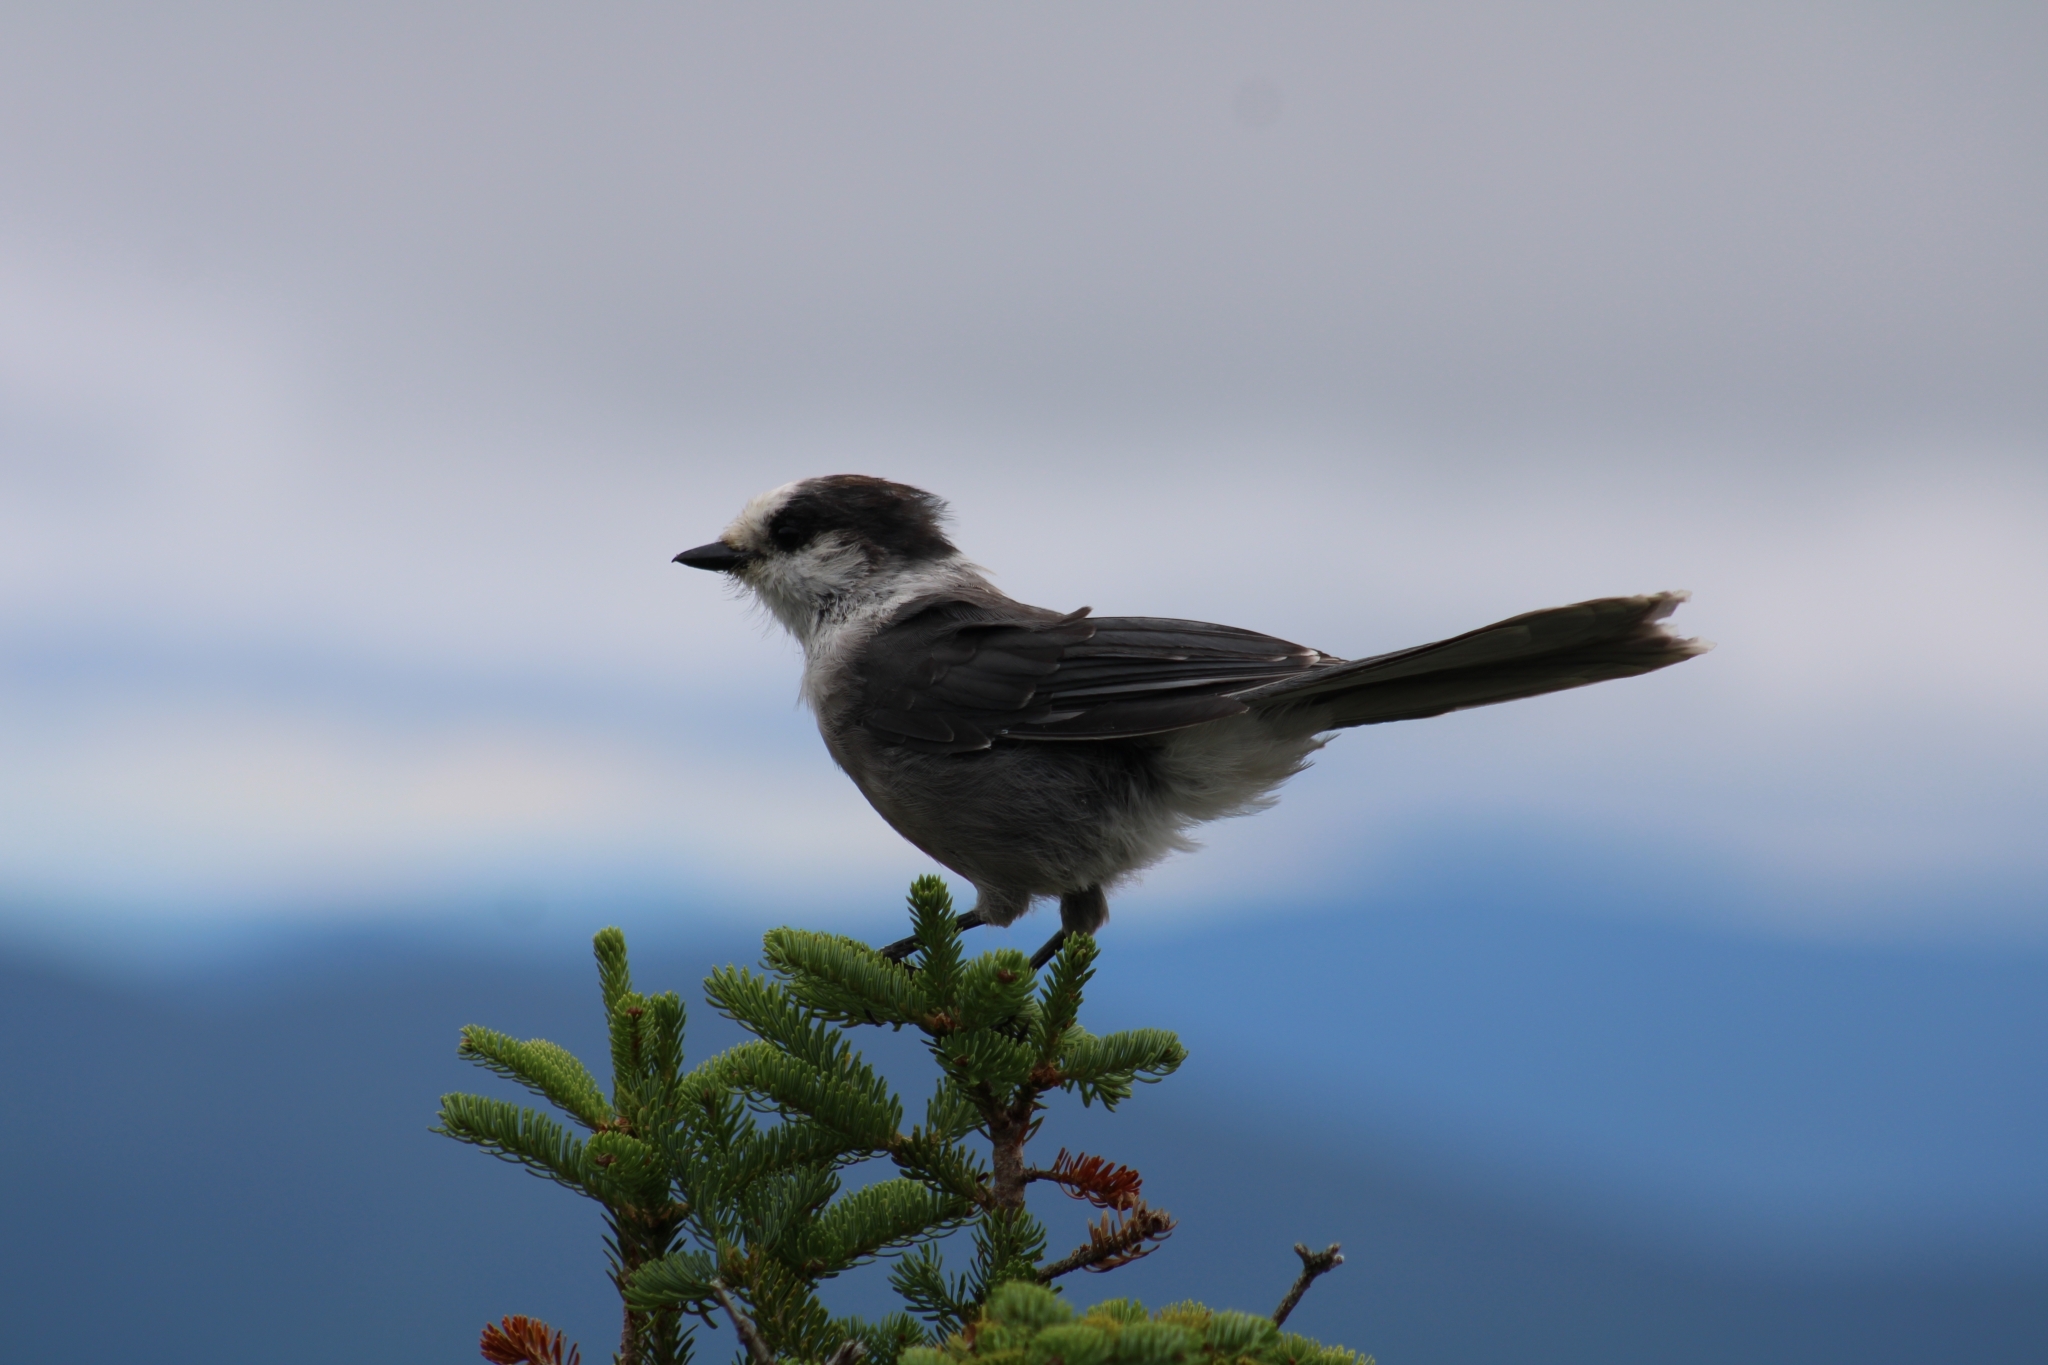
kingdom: Animalia
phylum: Chordata
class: Aves
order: Passeriformes
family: Corvidae
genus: Perisoreus
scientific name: Perisoreus canadensis
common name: Gray jay
